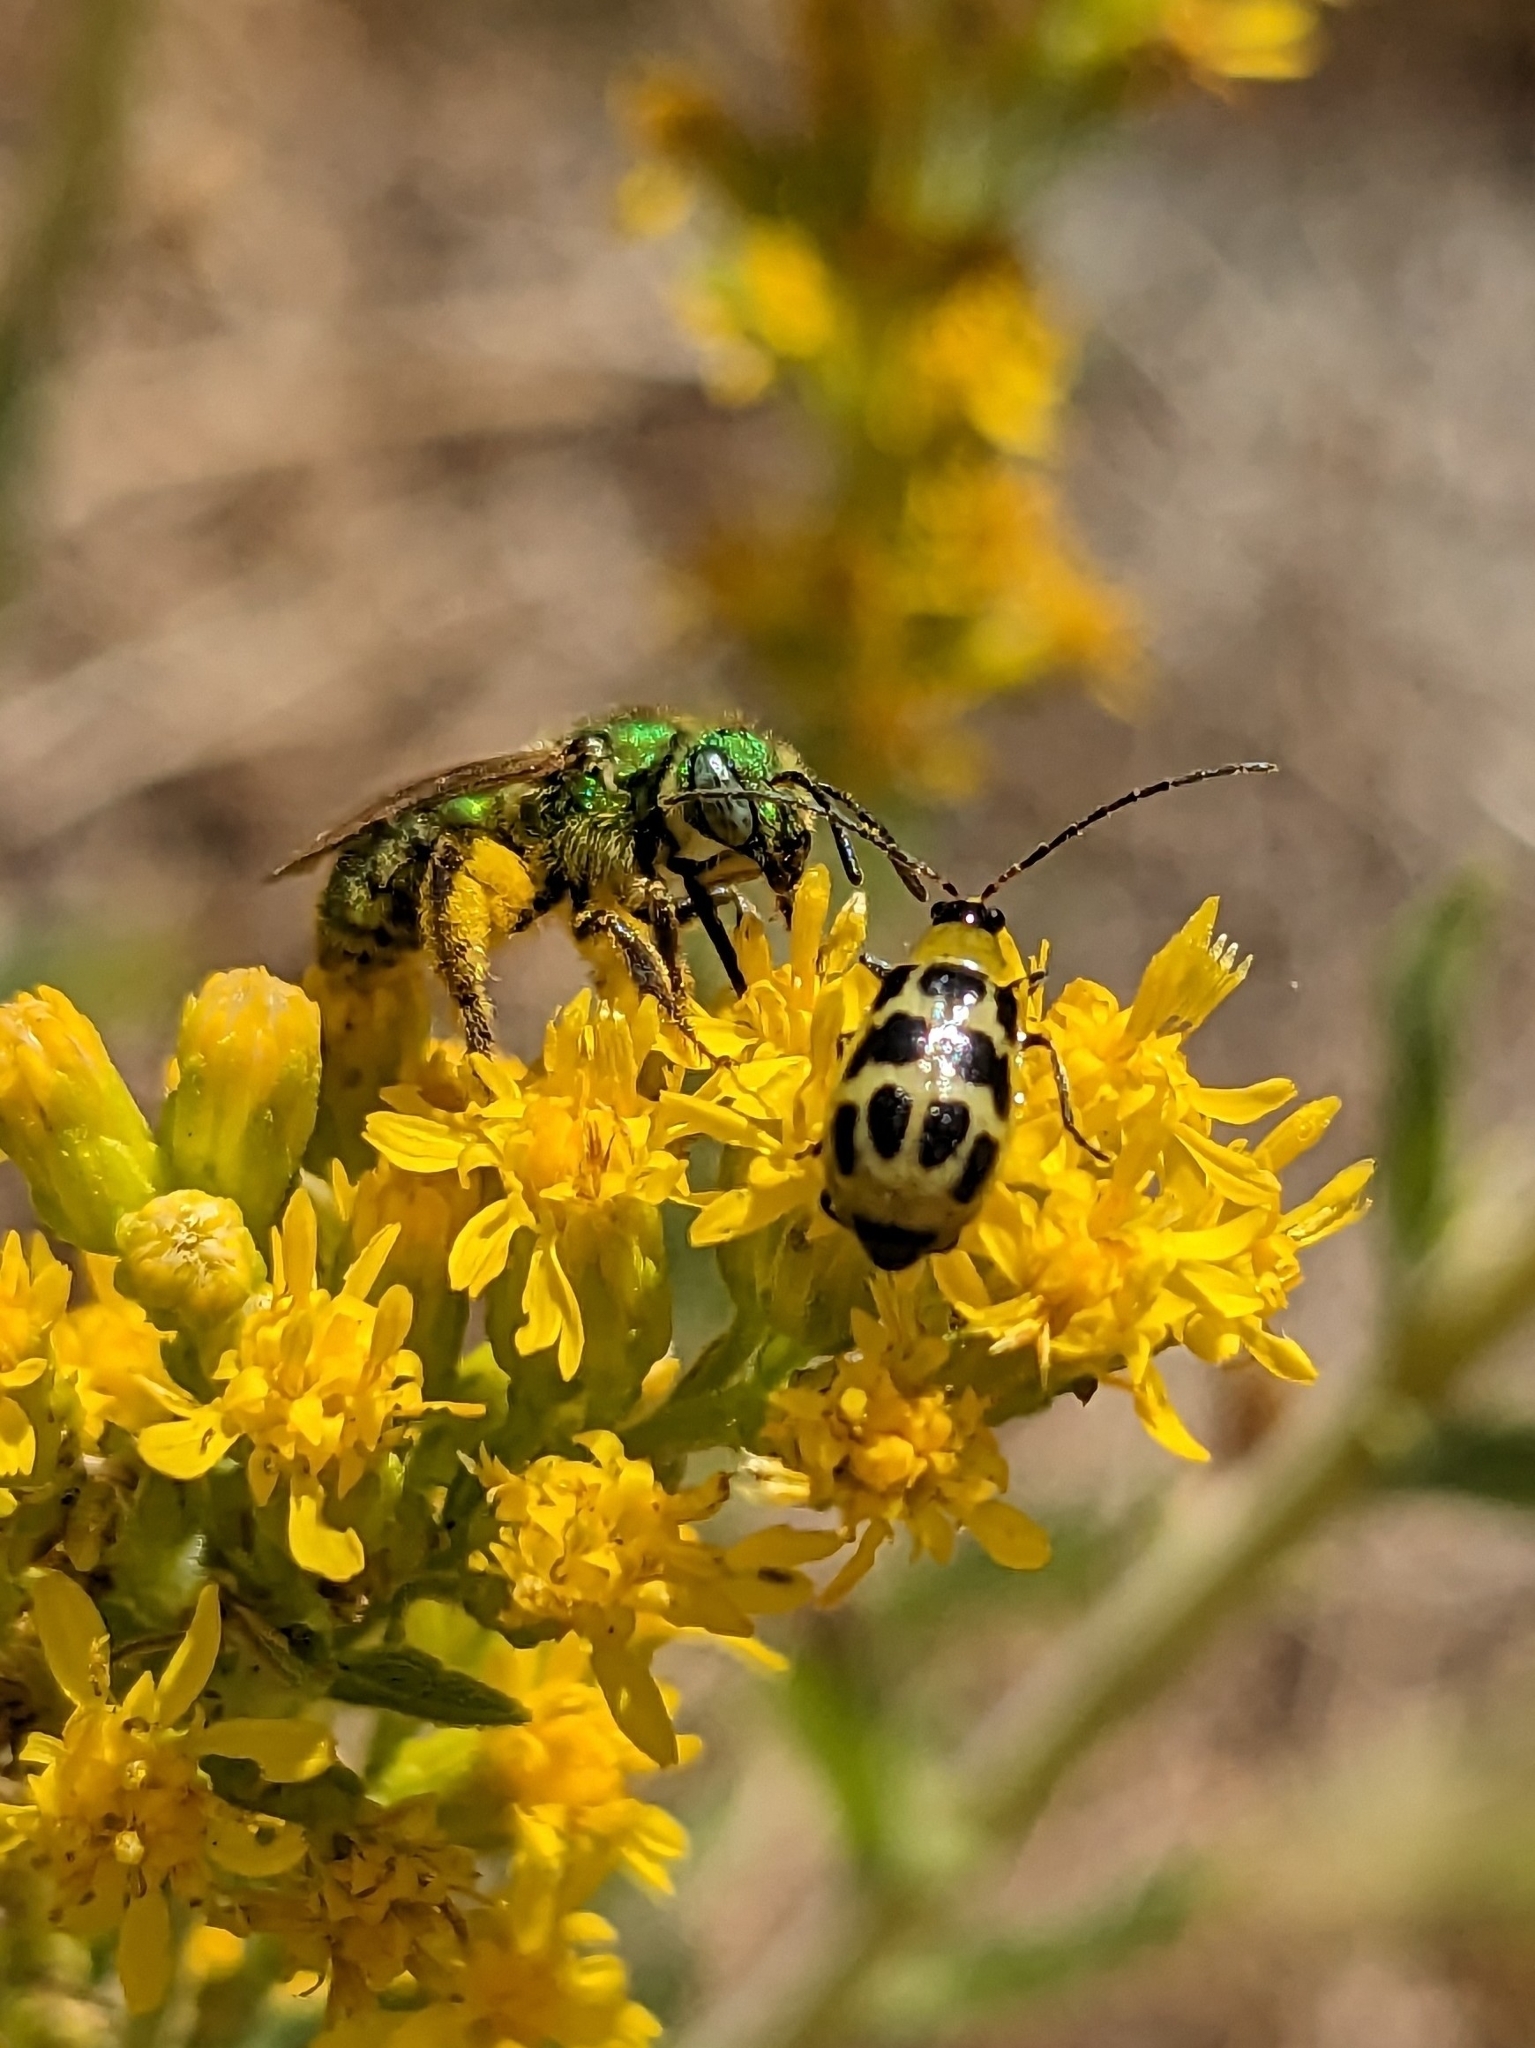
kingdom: Animalia
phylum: Arthropoda
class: Insecta
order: Coleoptera
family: Chrysomelidae
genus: Diabrotica
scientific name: Diabrotica undecimpunctata
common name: Spotted cucumber beetle
